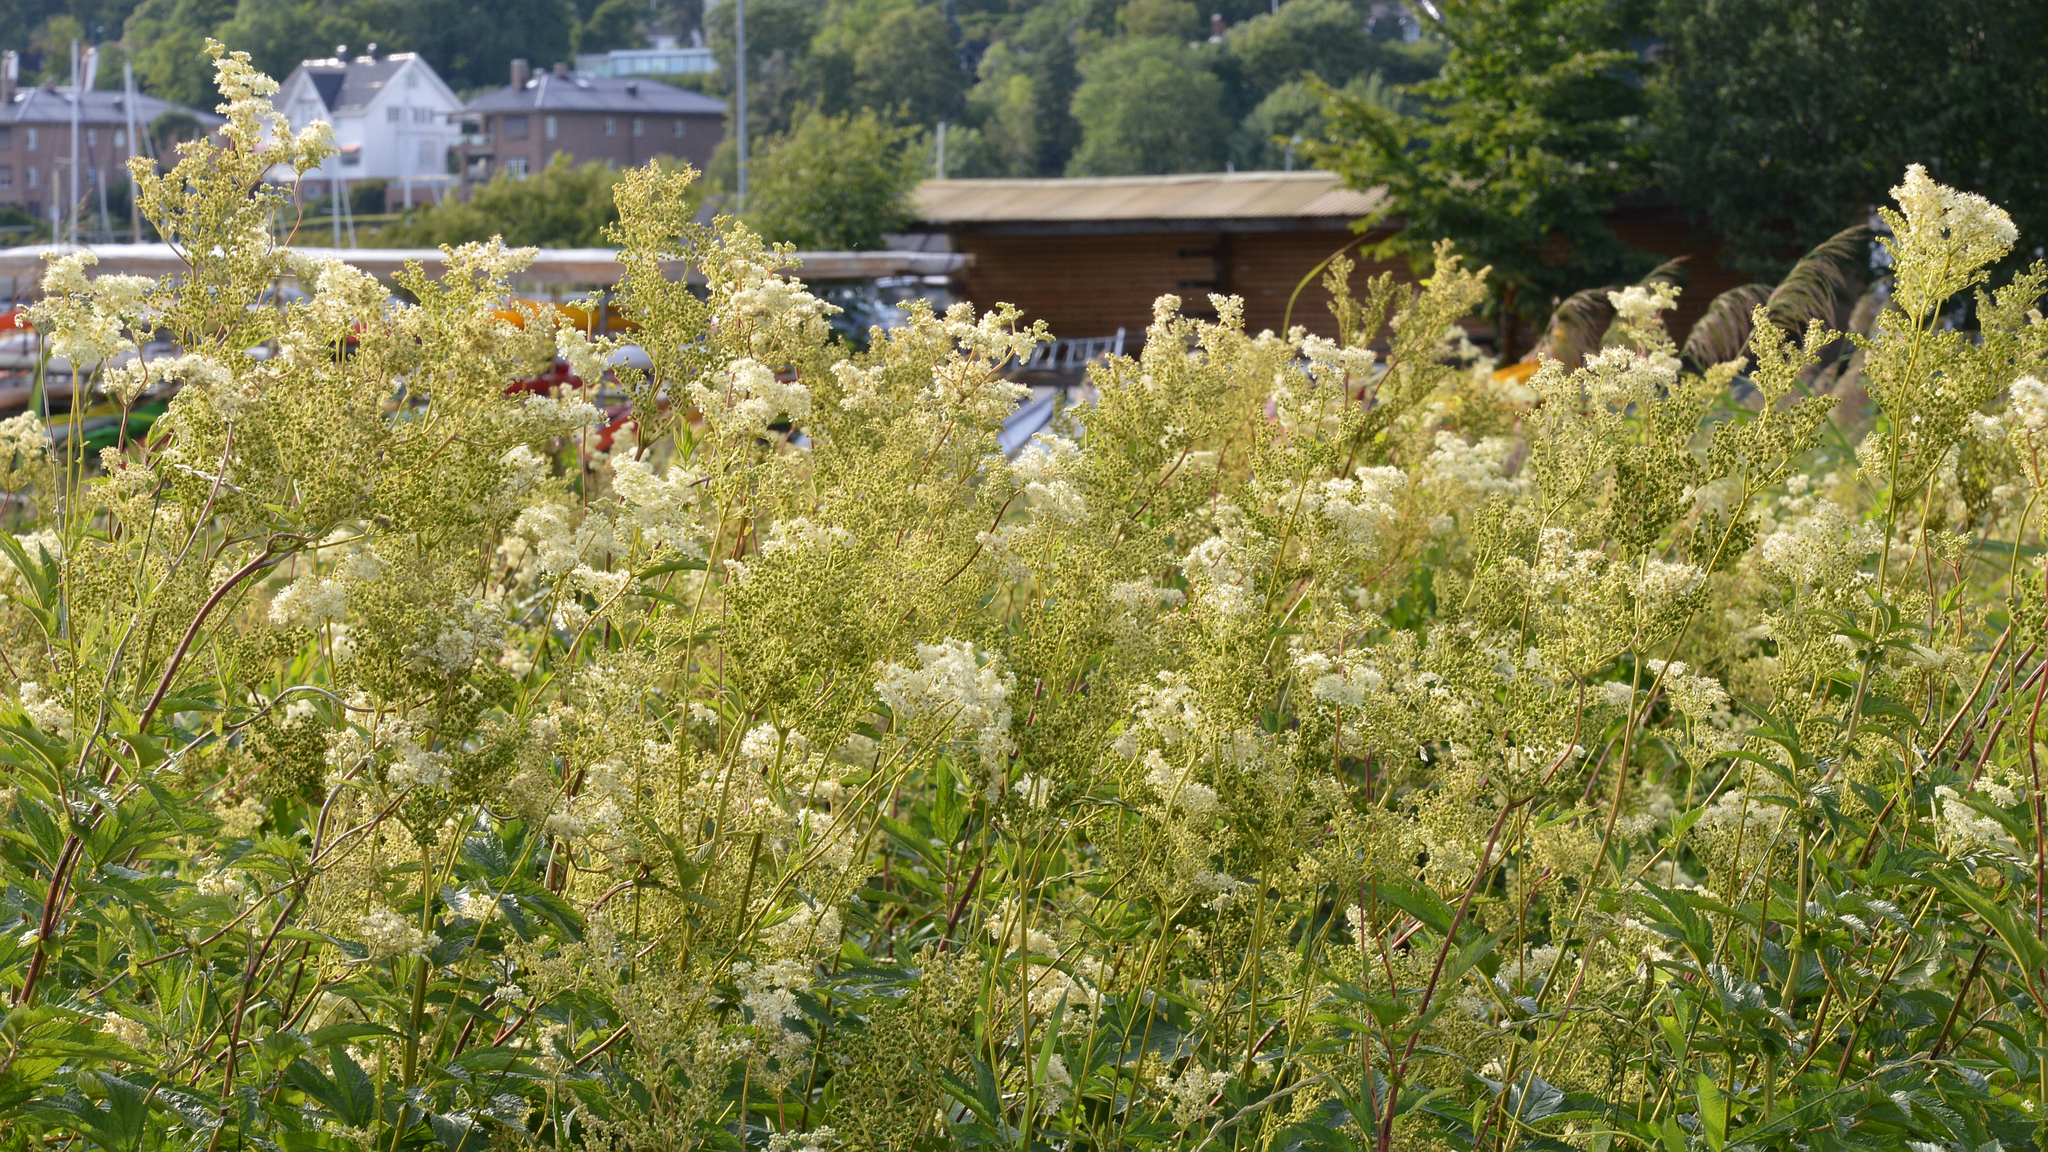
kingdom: Plantae
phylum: Tracheophyta
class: Magnoliopsida
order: Rosales
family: Rosaceae
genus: Filipendula
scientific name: Filipendula ulmaria
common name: Meadowsweet
